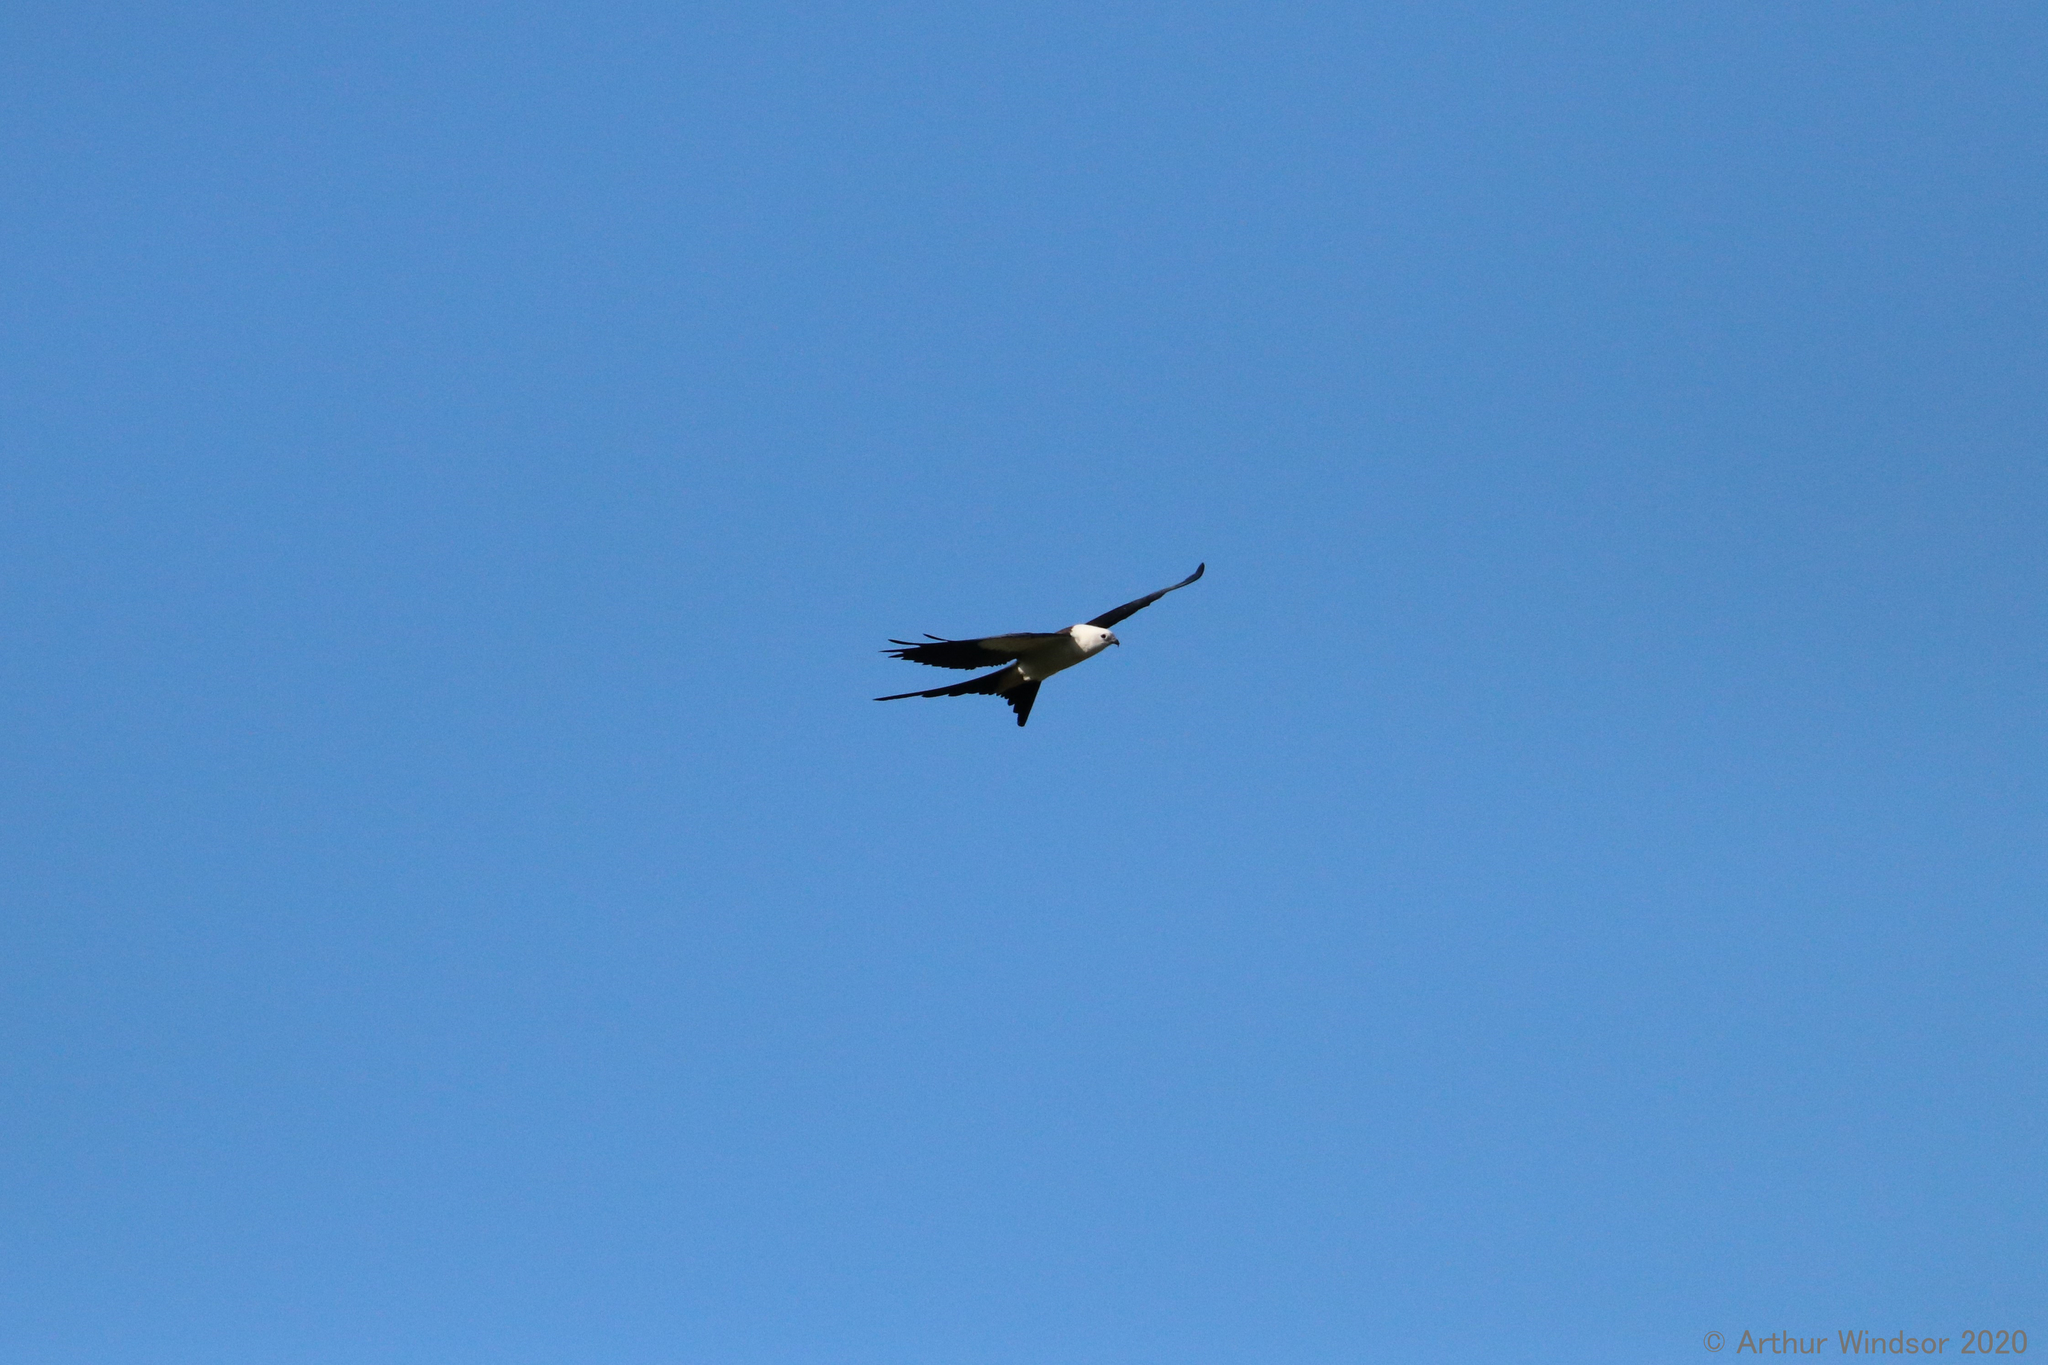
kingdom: Animalia
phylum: Chordata
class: Aves
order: Accipitriformes
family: Accipitridae
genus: Elanoides
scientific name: Elanoides forficatus
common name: Swallow-tailed kite
